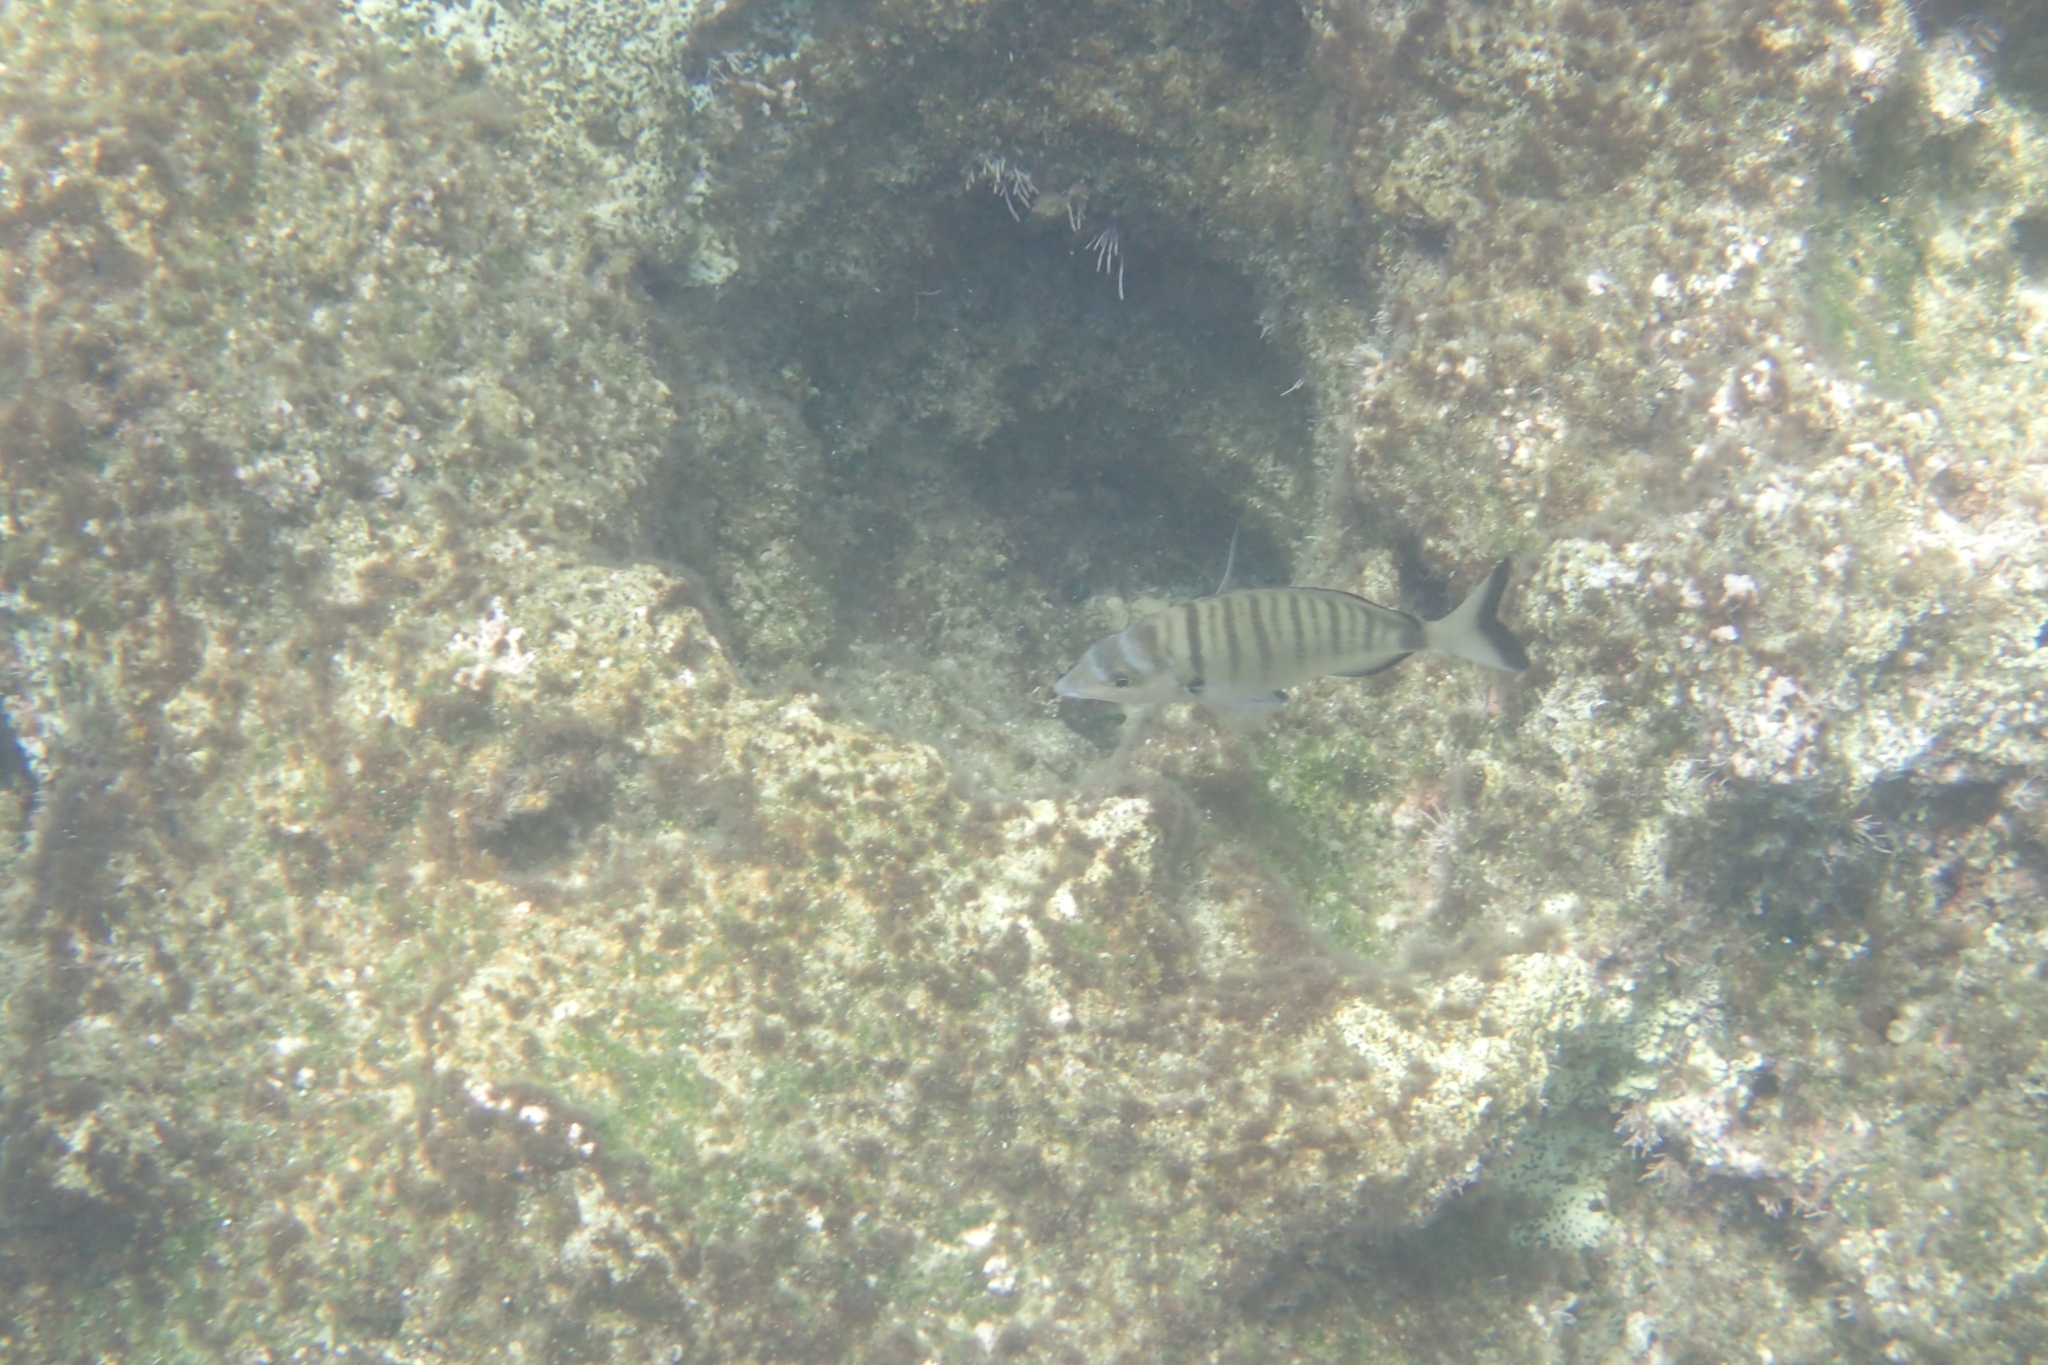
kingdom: Animalia
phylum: Chordata
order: Perciformes
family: Sparidae
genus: Diplodus
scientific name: Diplodus puntazzo
